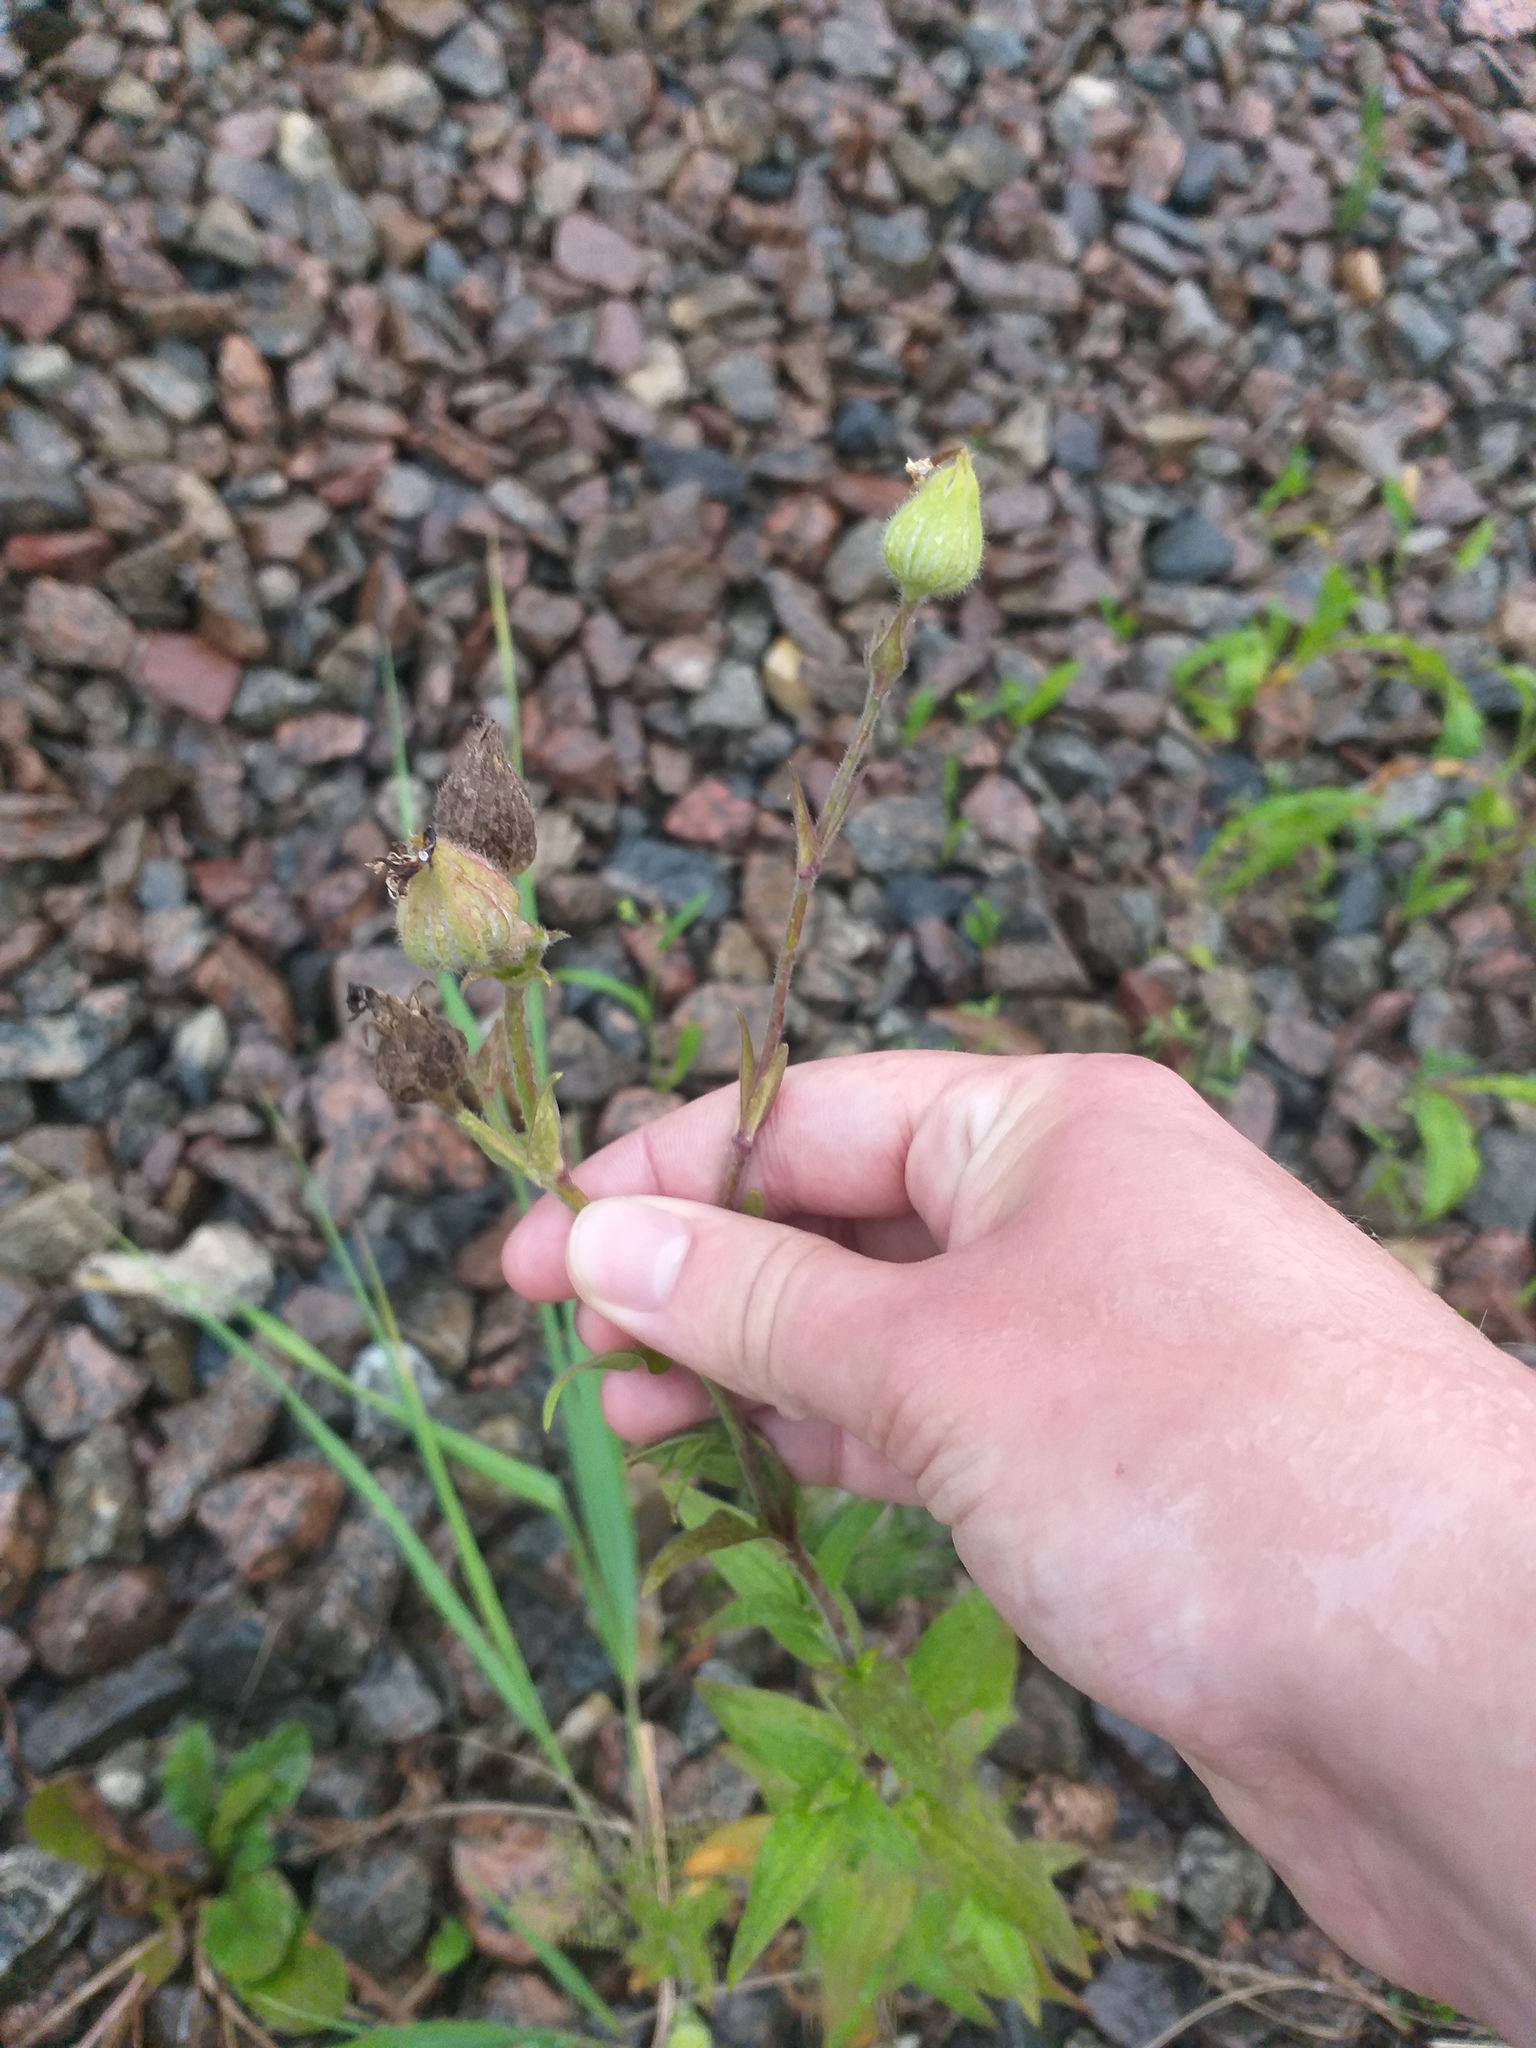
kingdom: Plantae
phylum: Tracheophyta
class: Magnoliopsida
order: Caryophyllales
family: Caryophyllaceae
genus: Silene
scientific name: Silene latifolia
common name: White campion
